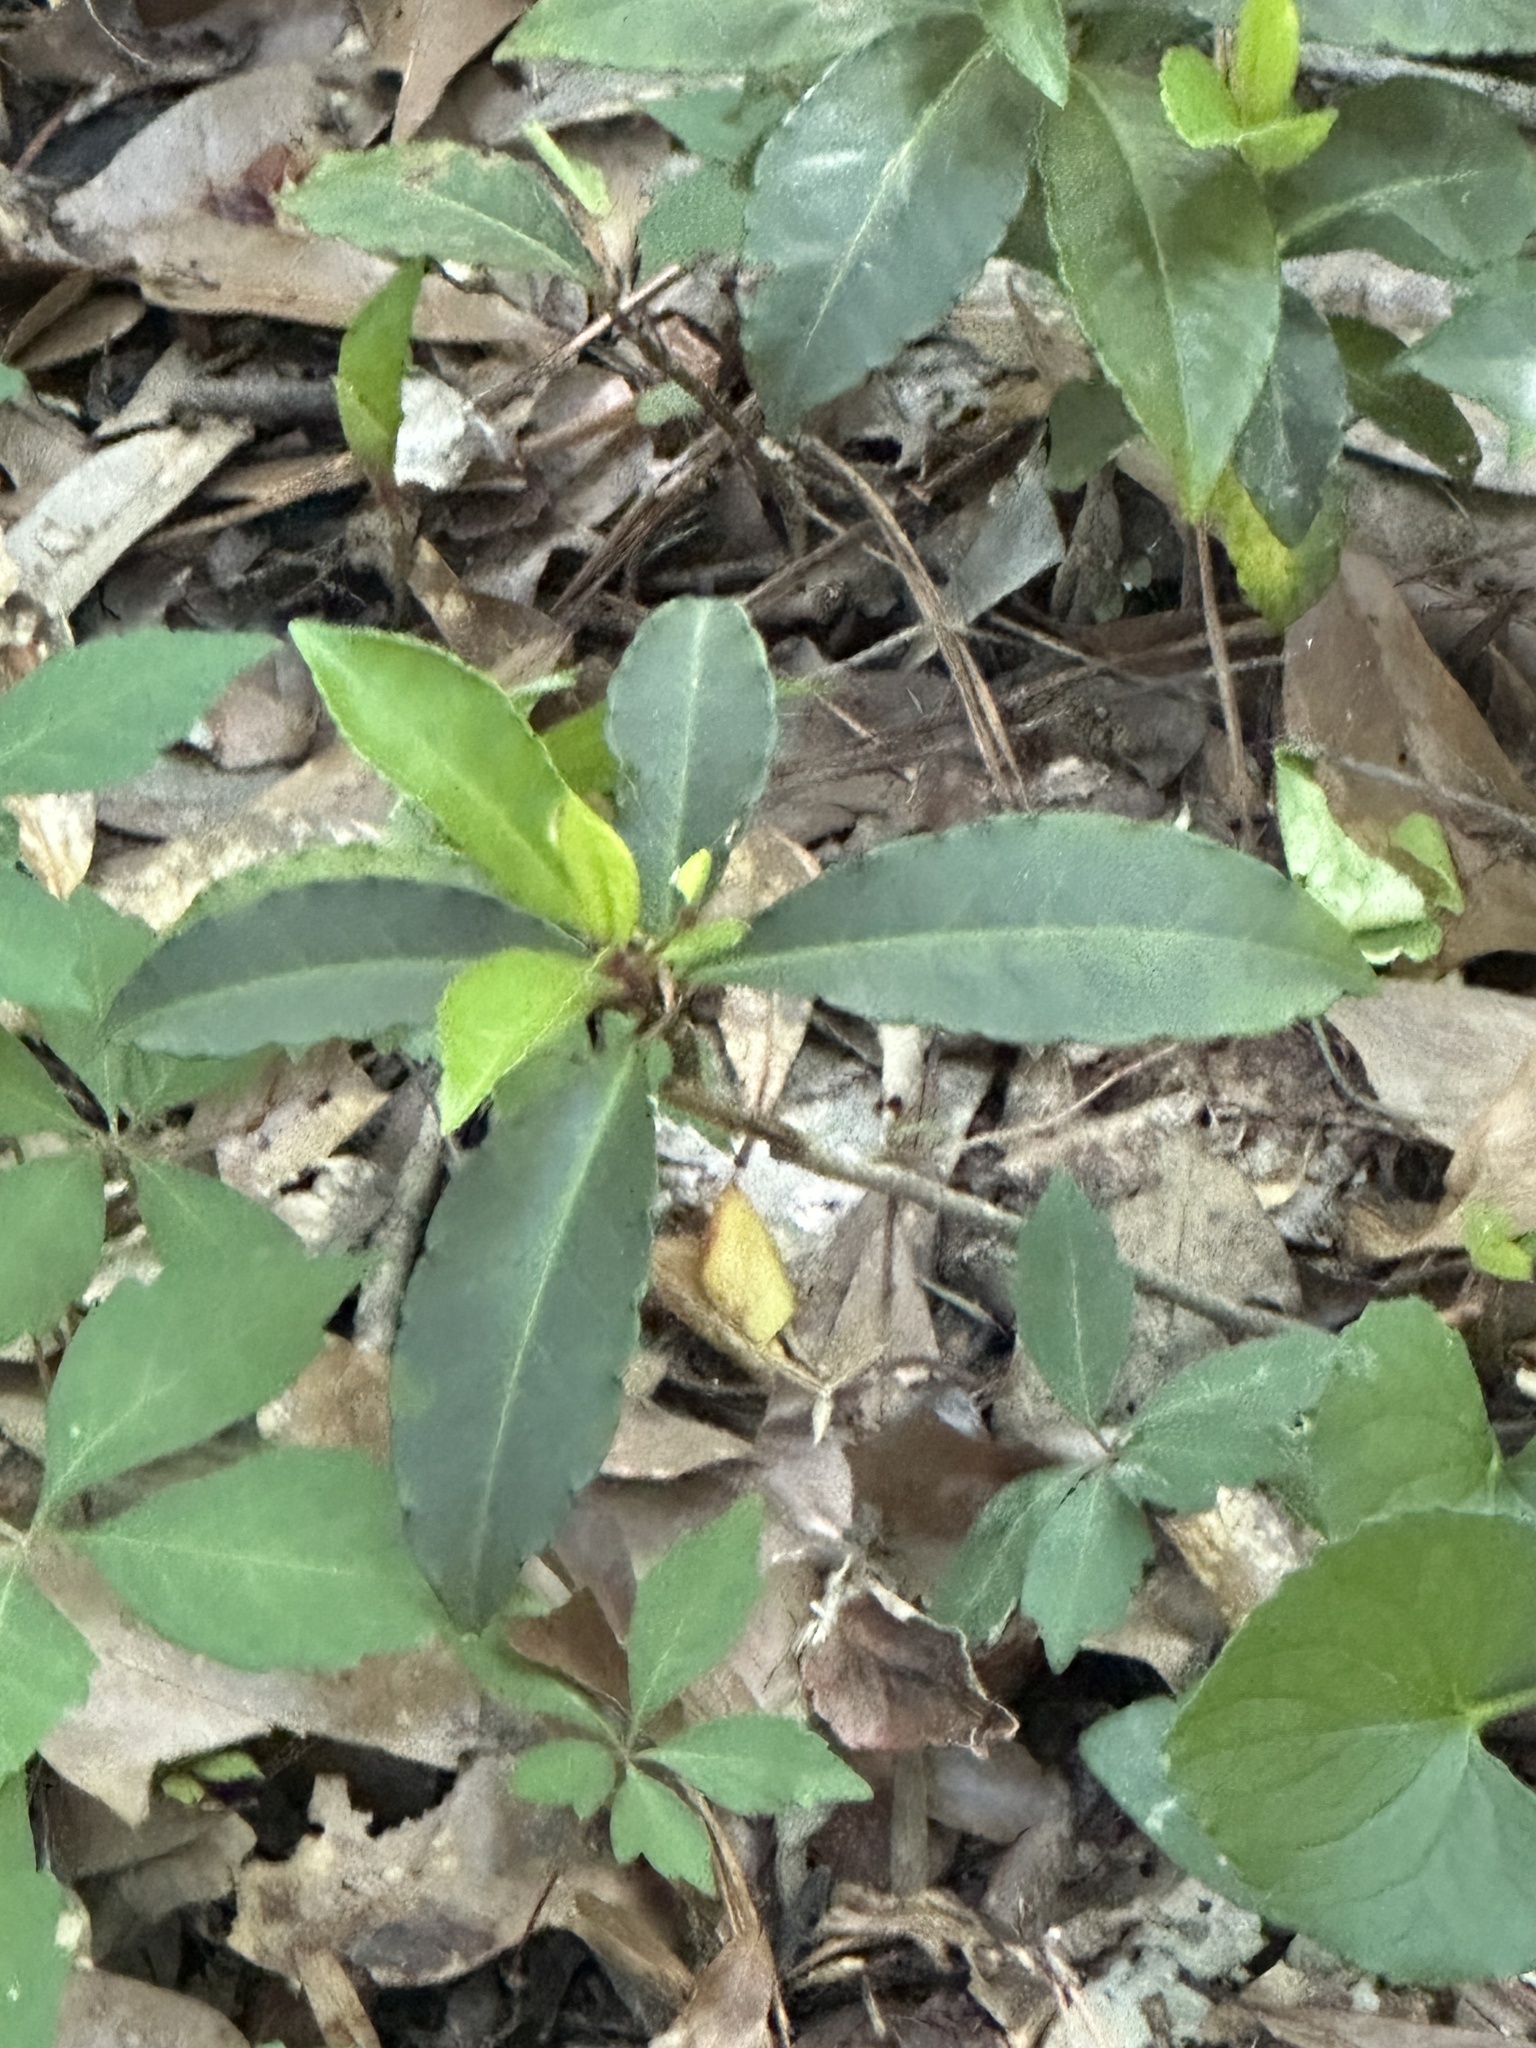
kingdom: Plantae
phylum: Tracheophyta
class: Magnoliopsida
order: Ericales
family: Primulaceae
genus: Ardisia
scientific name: Ardisia crenata
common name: Hen's eyes
